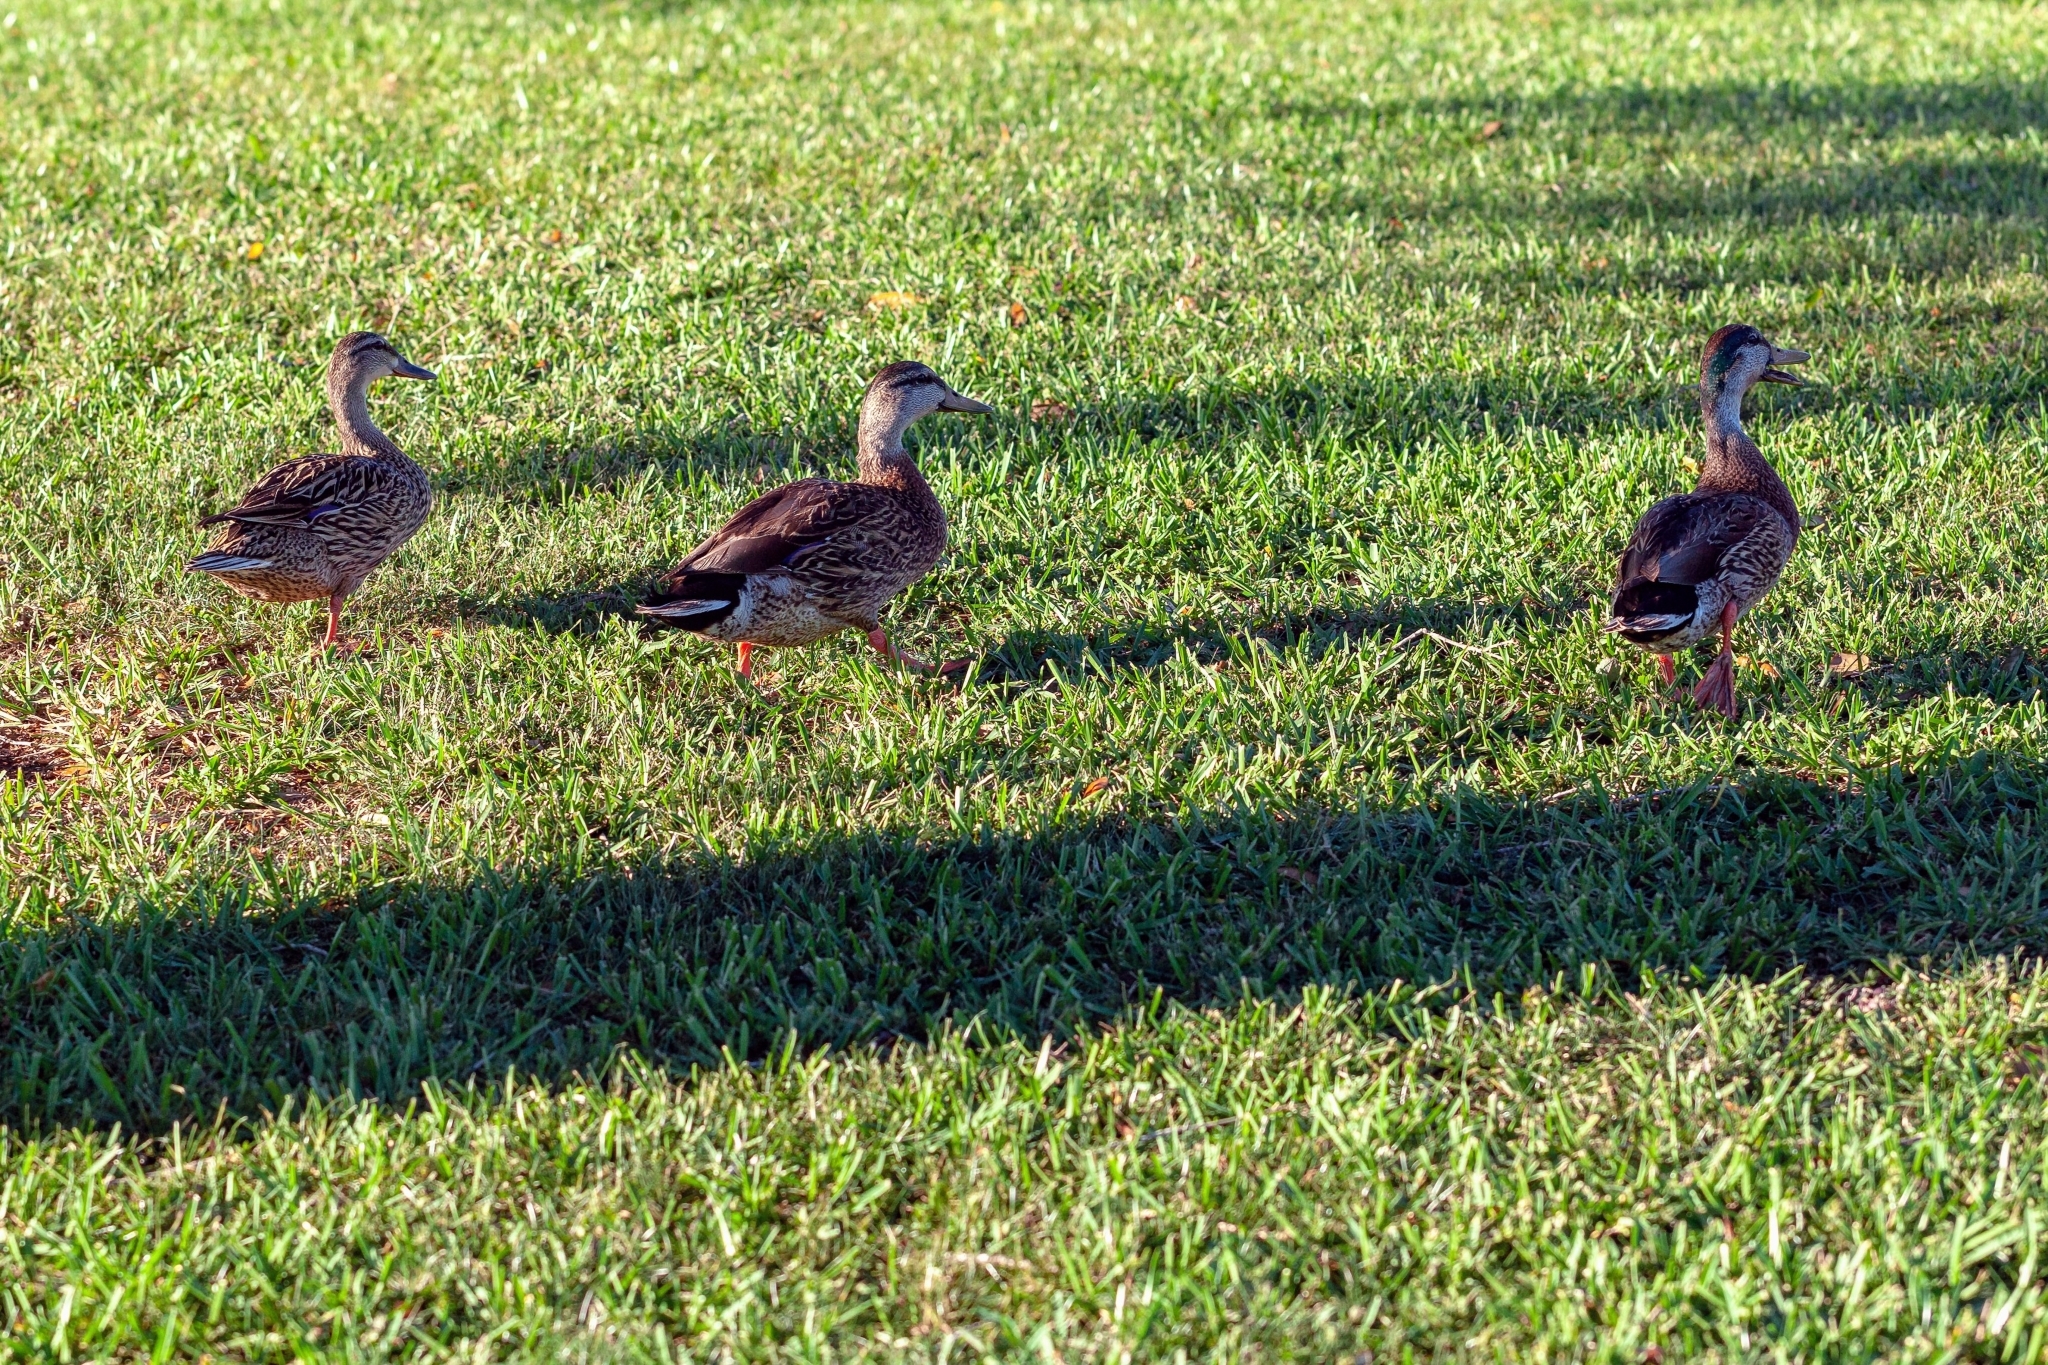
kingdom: Animalia
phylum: Chordata
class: Aves
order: Anseriformes
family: Anatidae
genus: Anas
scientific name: Anas
